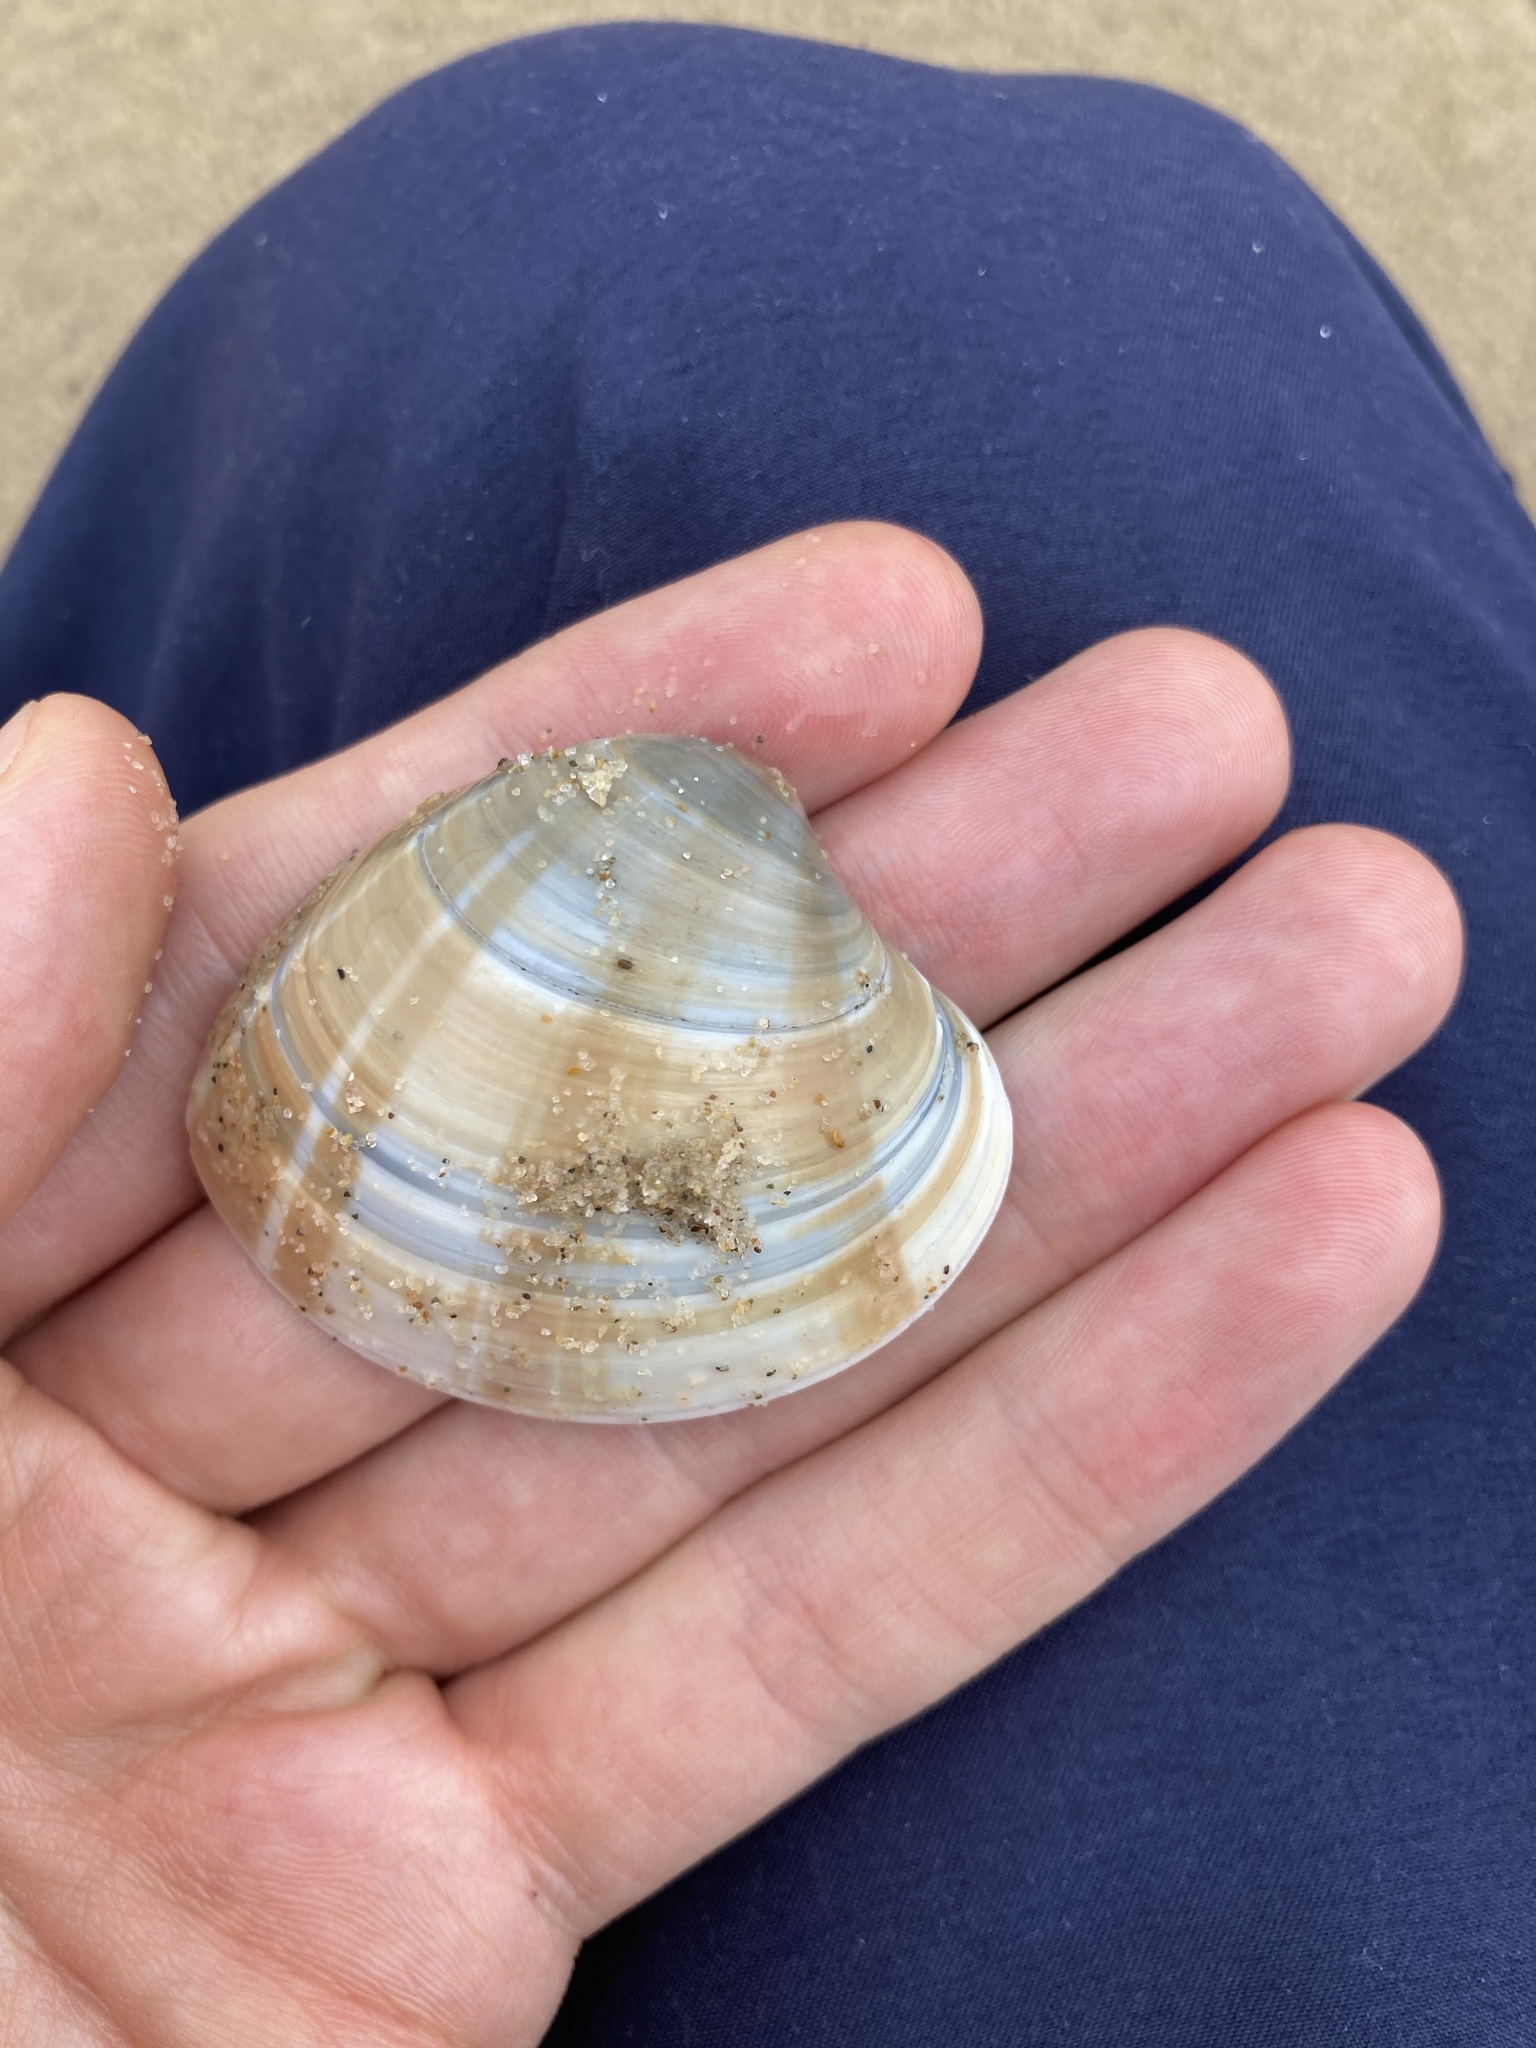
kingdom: Animalia
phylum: Mollusca
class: Bivalvia
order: Venerida
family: Veneridae
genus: Bassina
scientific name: Bassina pachyphylla
